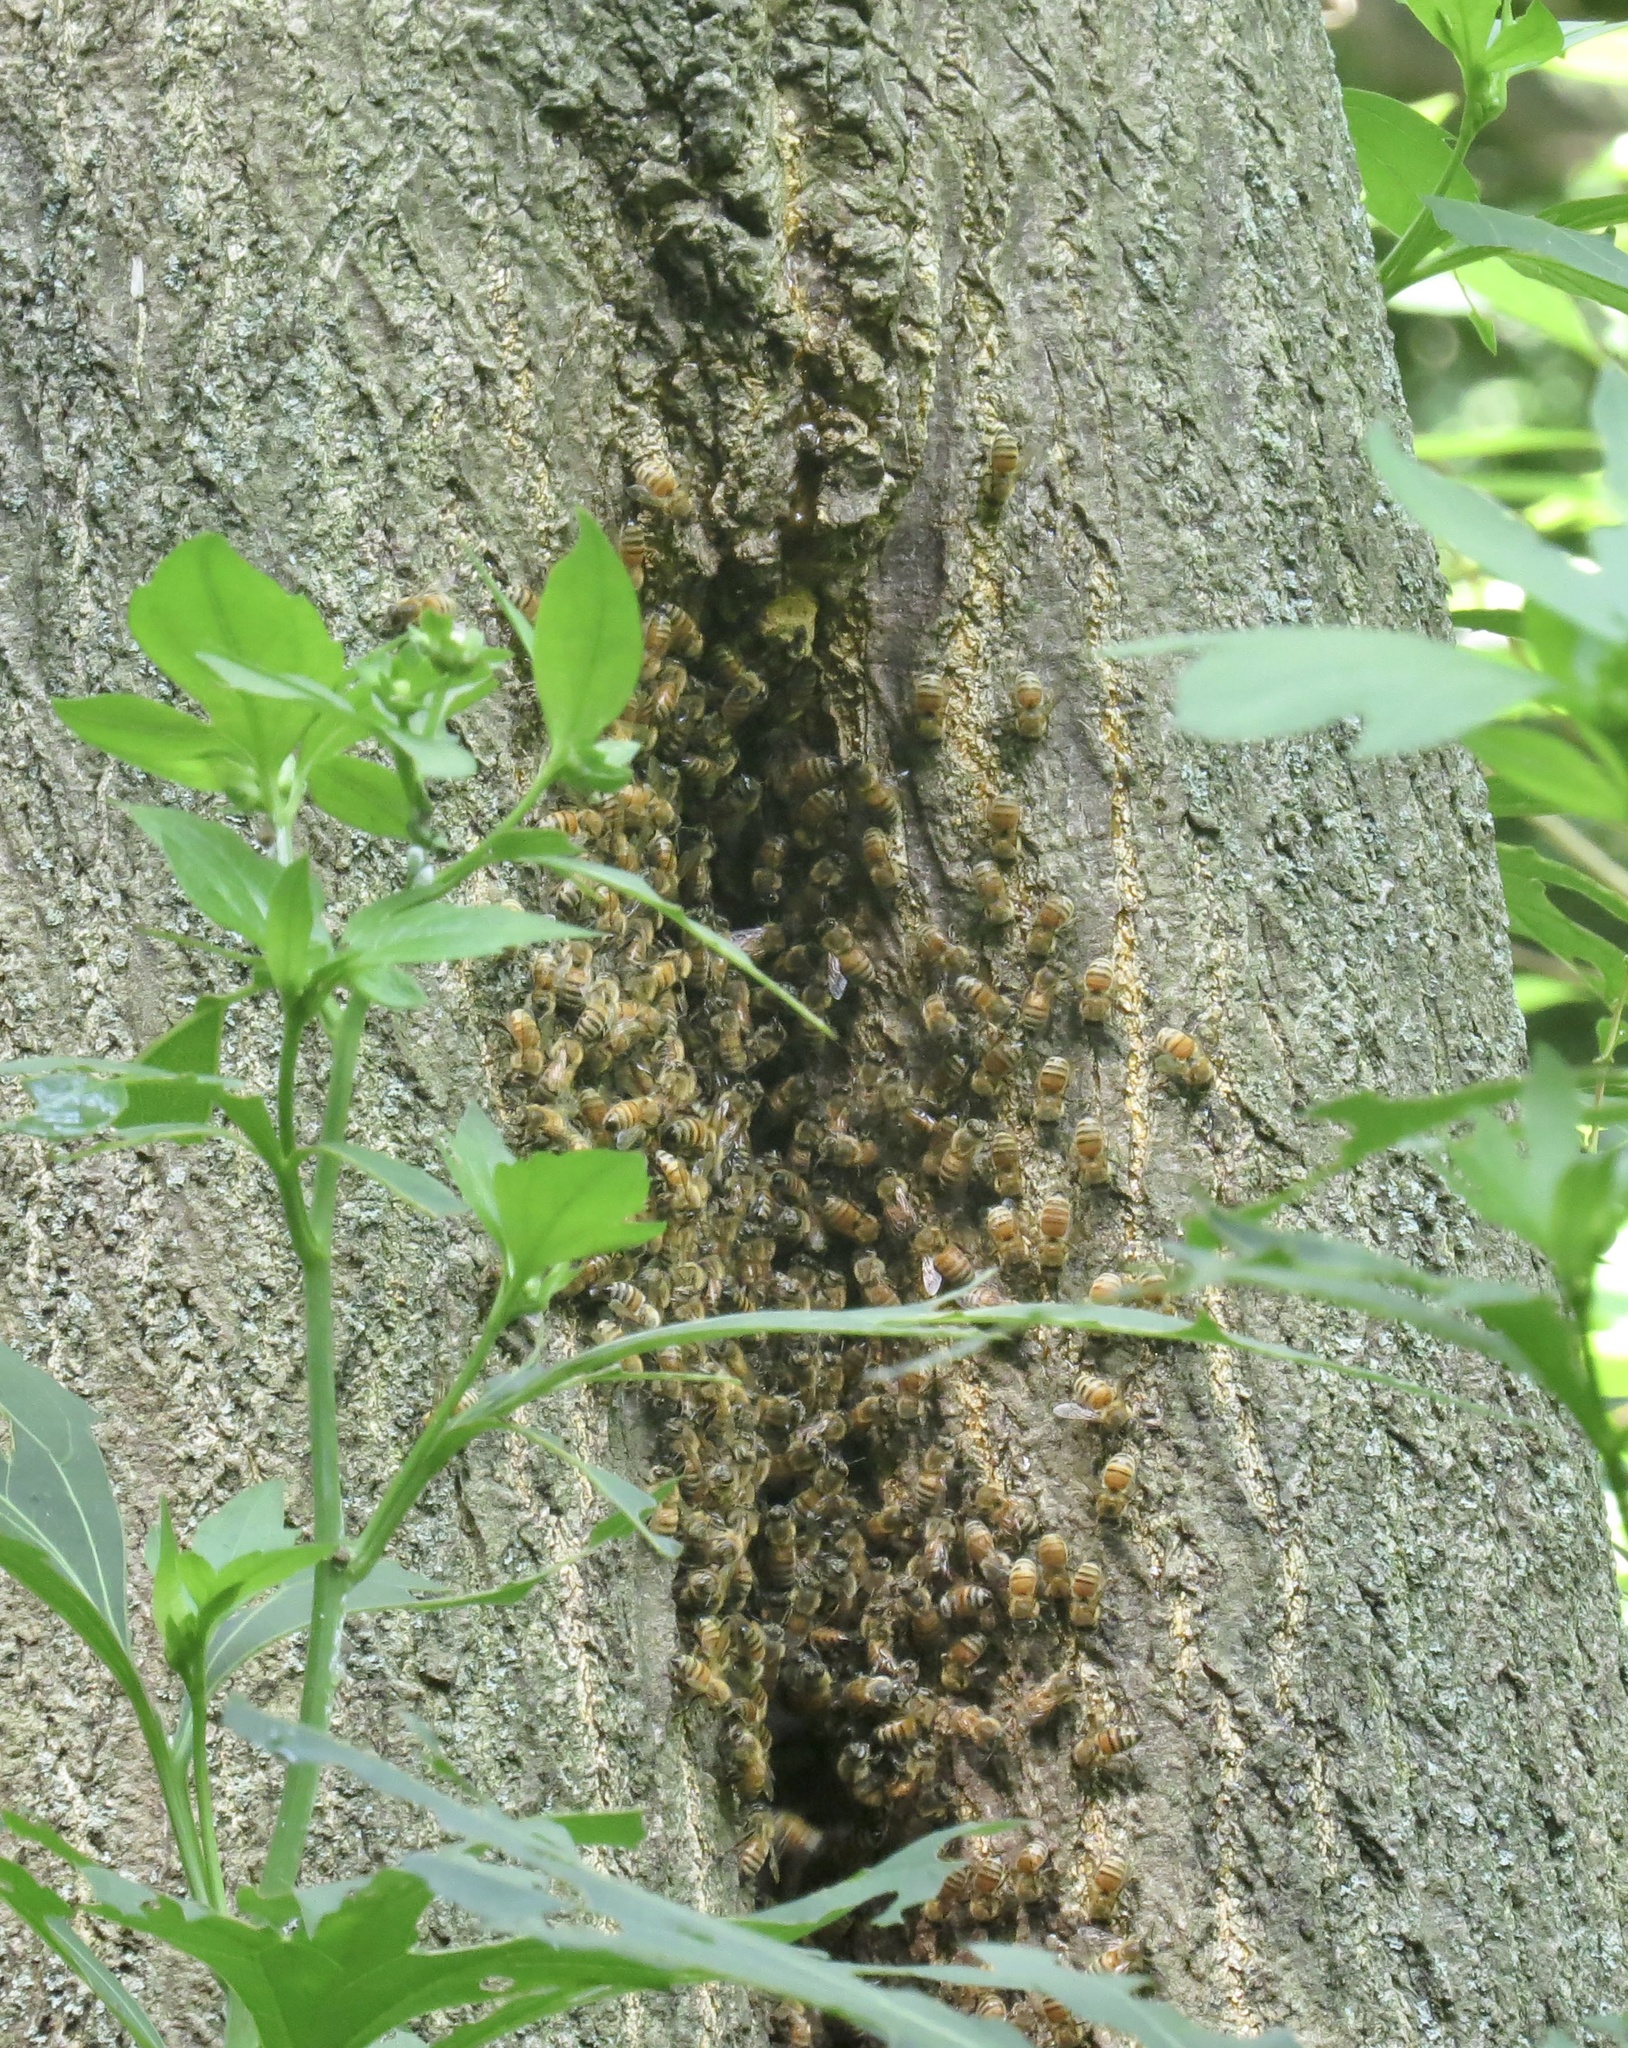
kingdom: Animalia
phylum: Arthropoda
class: Insecta
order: Hymenoptera
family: Apidae
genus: Apis
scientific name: Apis mellifera
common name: Honey bee
